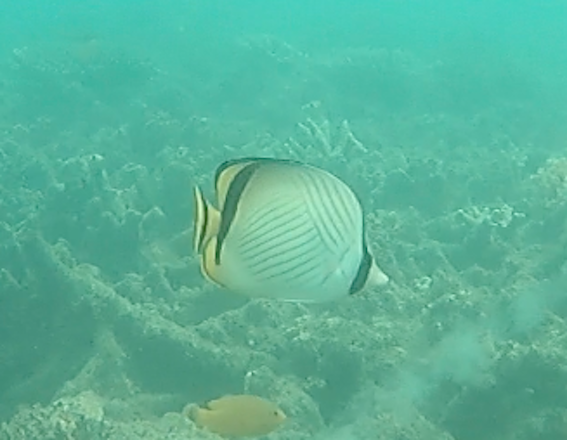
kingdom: Animalia
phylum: Chordata
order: Perciformes
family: Chaetodontidae
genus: Chaetodon
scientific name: Chaetodon vagabundus
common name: Vagabond butterflyfish
